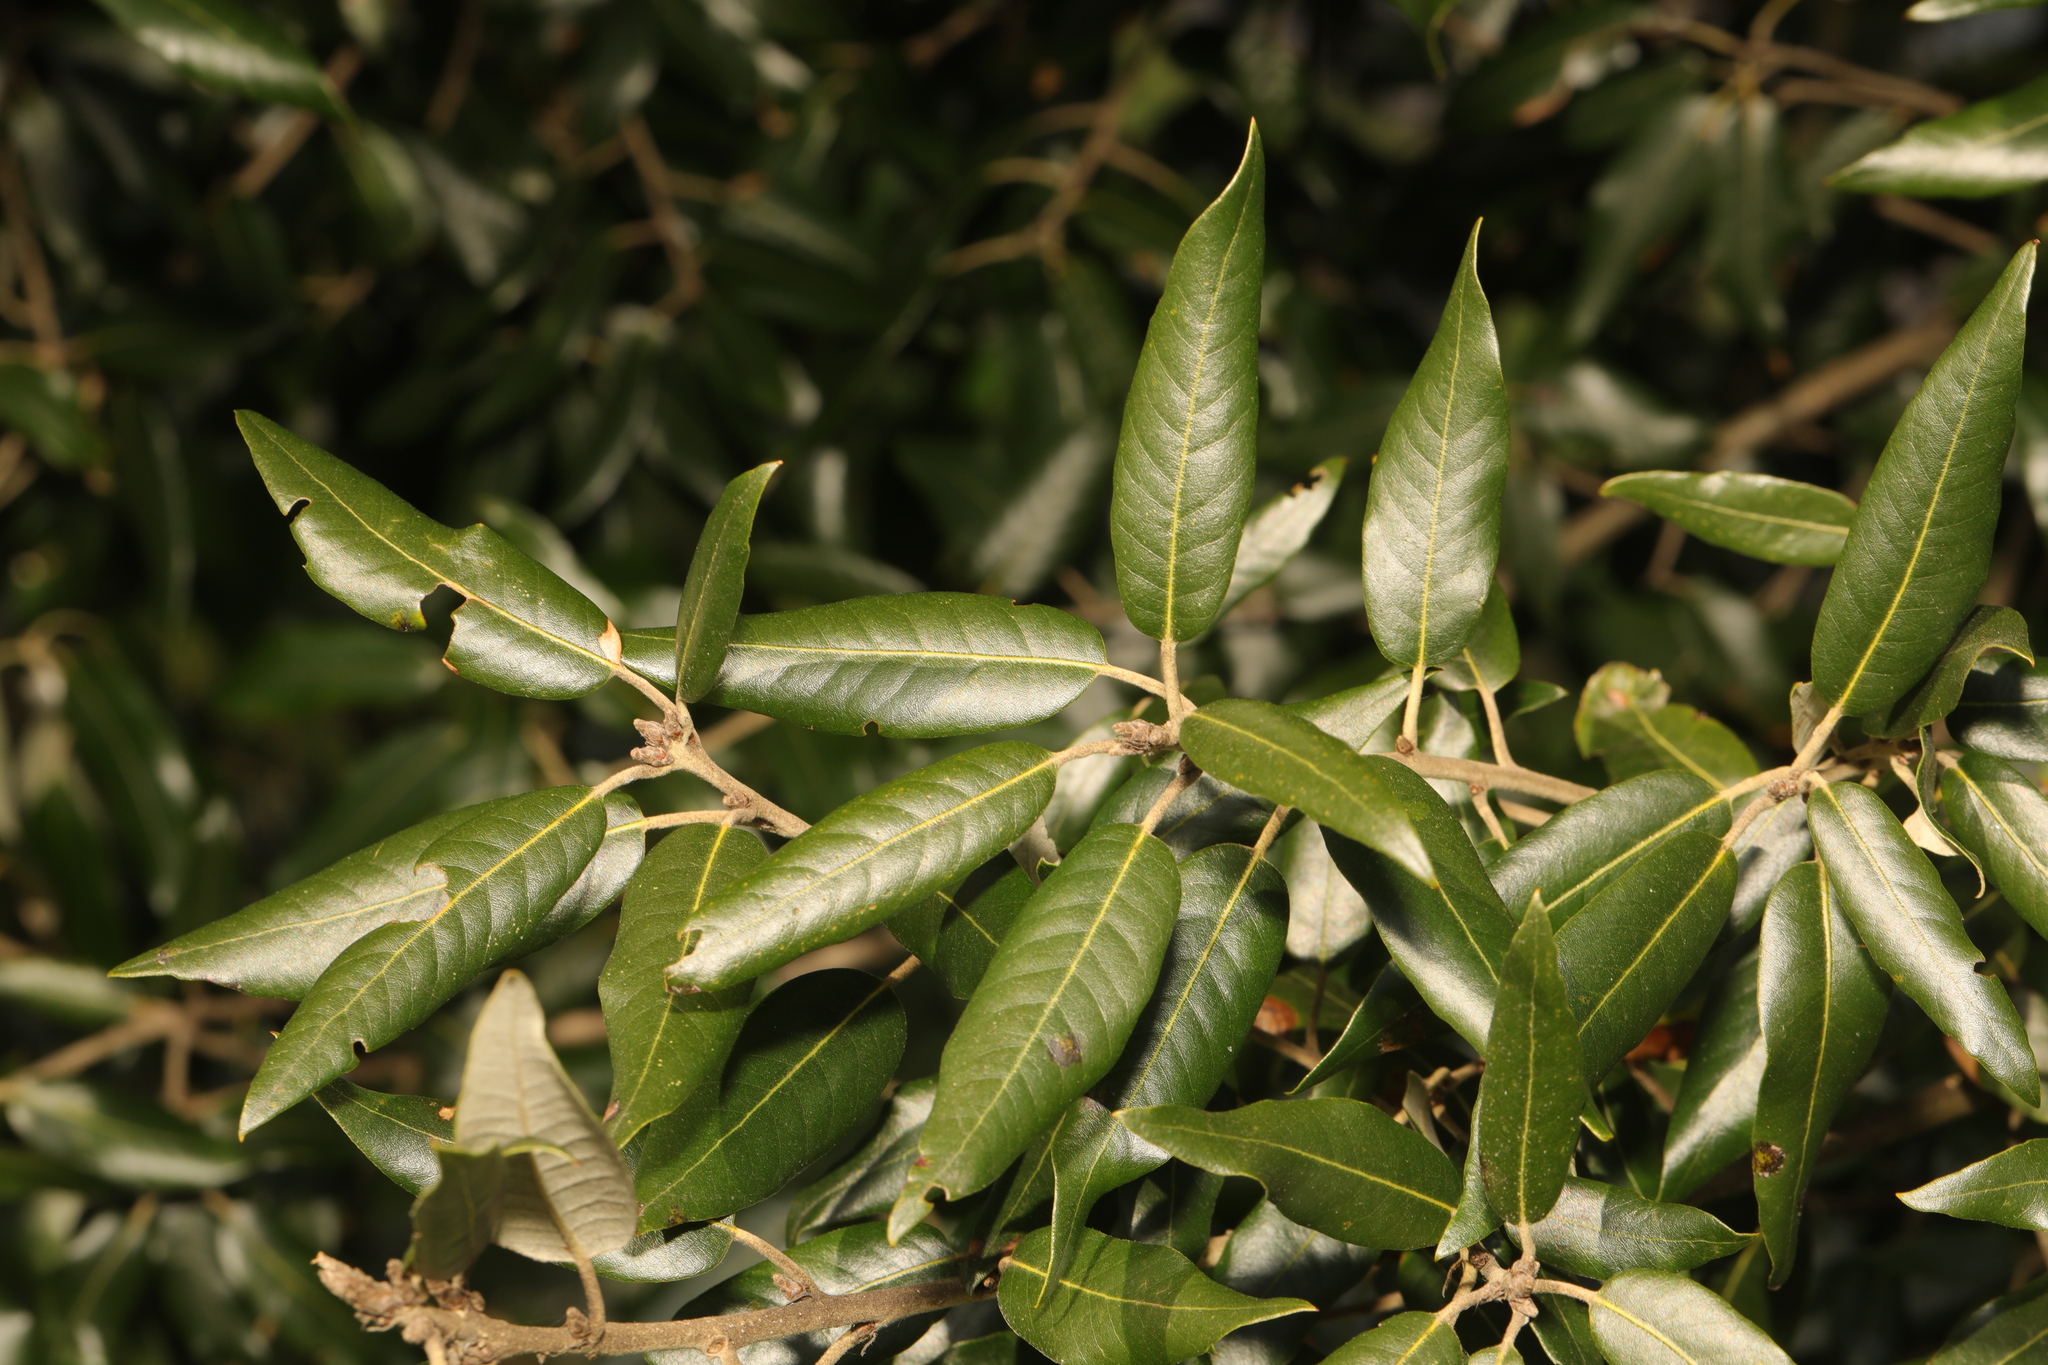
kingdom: Plantae
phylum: Tracheophyta
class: Magnoliopsida
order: Fagales
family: Fagaceae
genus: Quercus
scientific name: Quercus ilex
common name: Evergreen oak
